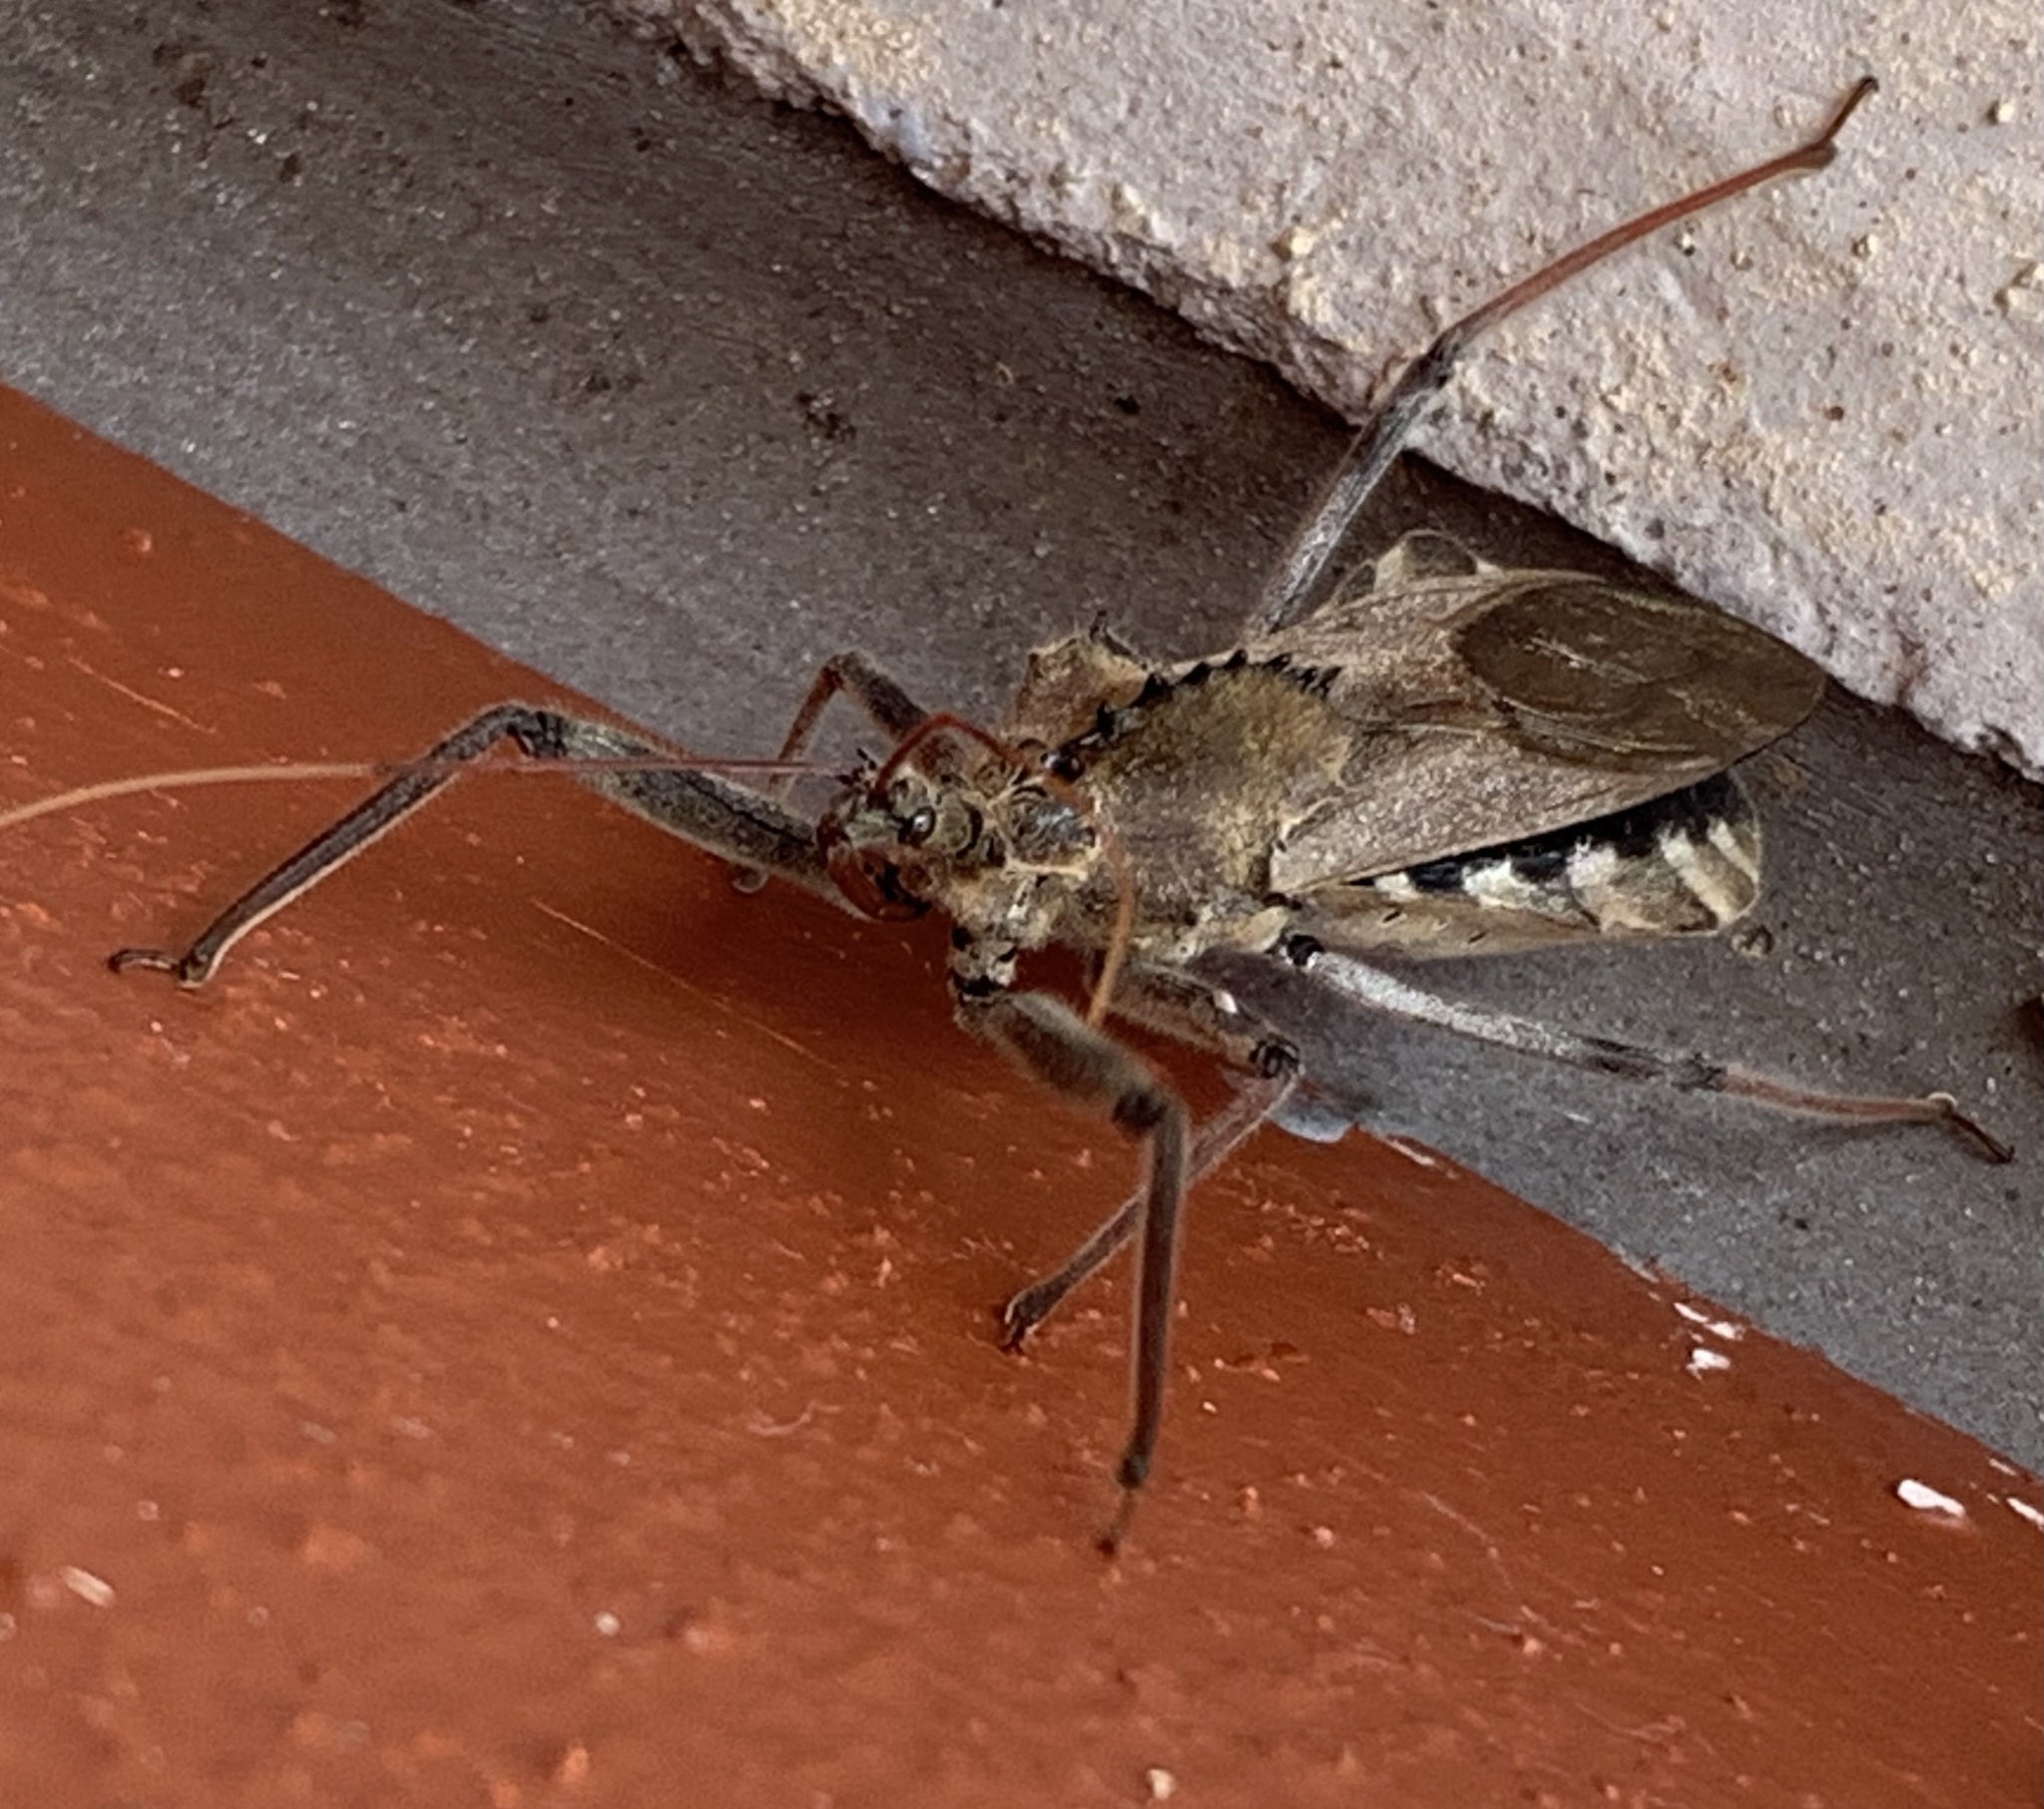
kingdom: Animalia
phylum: Arthropoda
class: Insecta
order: Hemiptera
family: Reduviidae
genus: Arilus
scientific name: Arilus cristatus
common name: North american wheel bug
